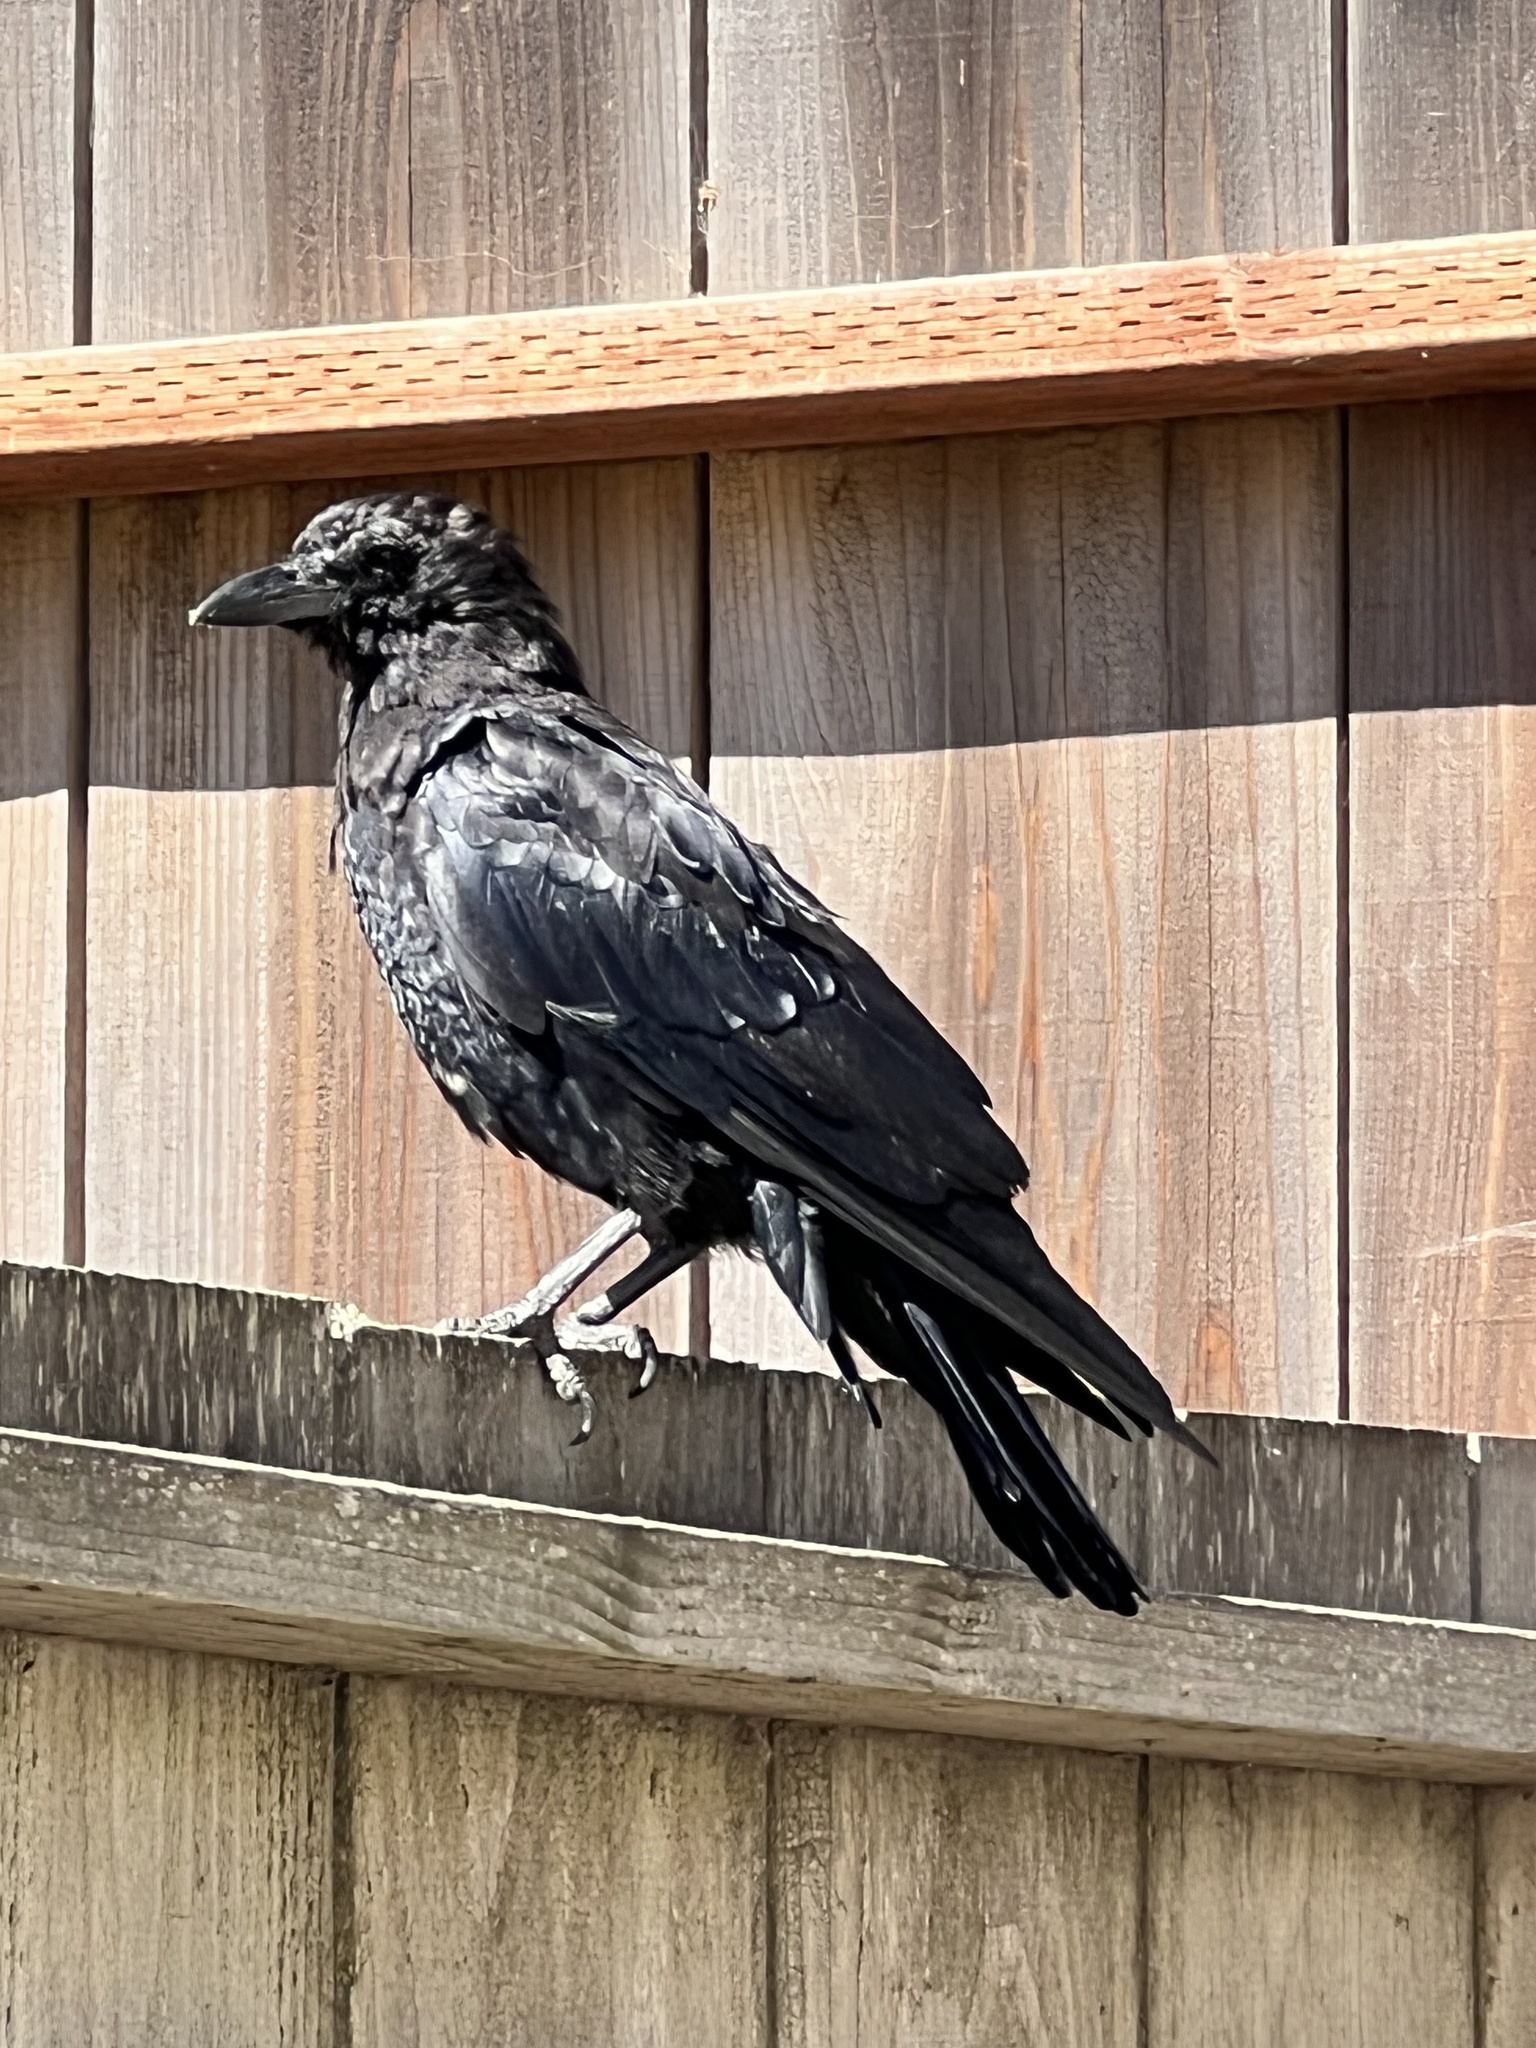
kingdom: Animalia
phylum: Chordata
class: Aves
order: Passeriformes
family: Corvidae
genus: Corvus
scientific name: Corvus brachyrhynchos
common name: American crow
